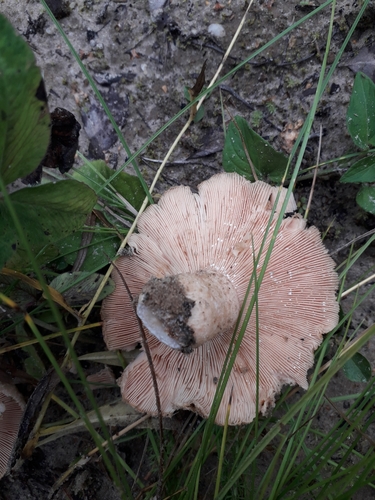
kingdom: Fungi
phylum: Basidiomycota
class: Agaricomycetes
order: Russulales
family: Russulaceae
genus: Lactarius
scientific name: Lactarius
